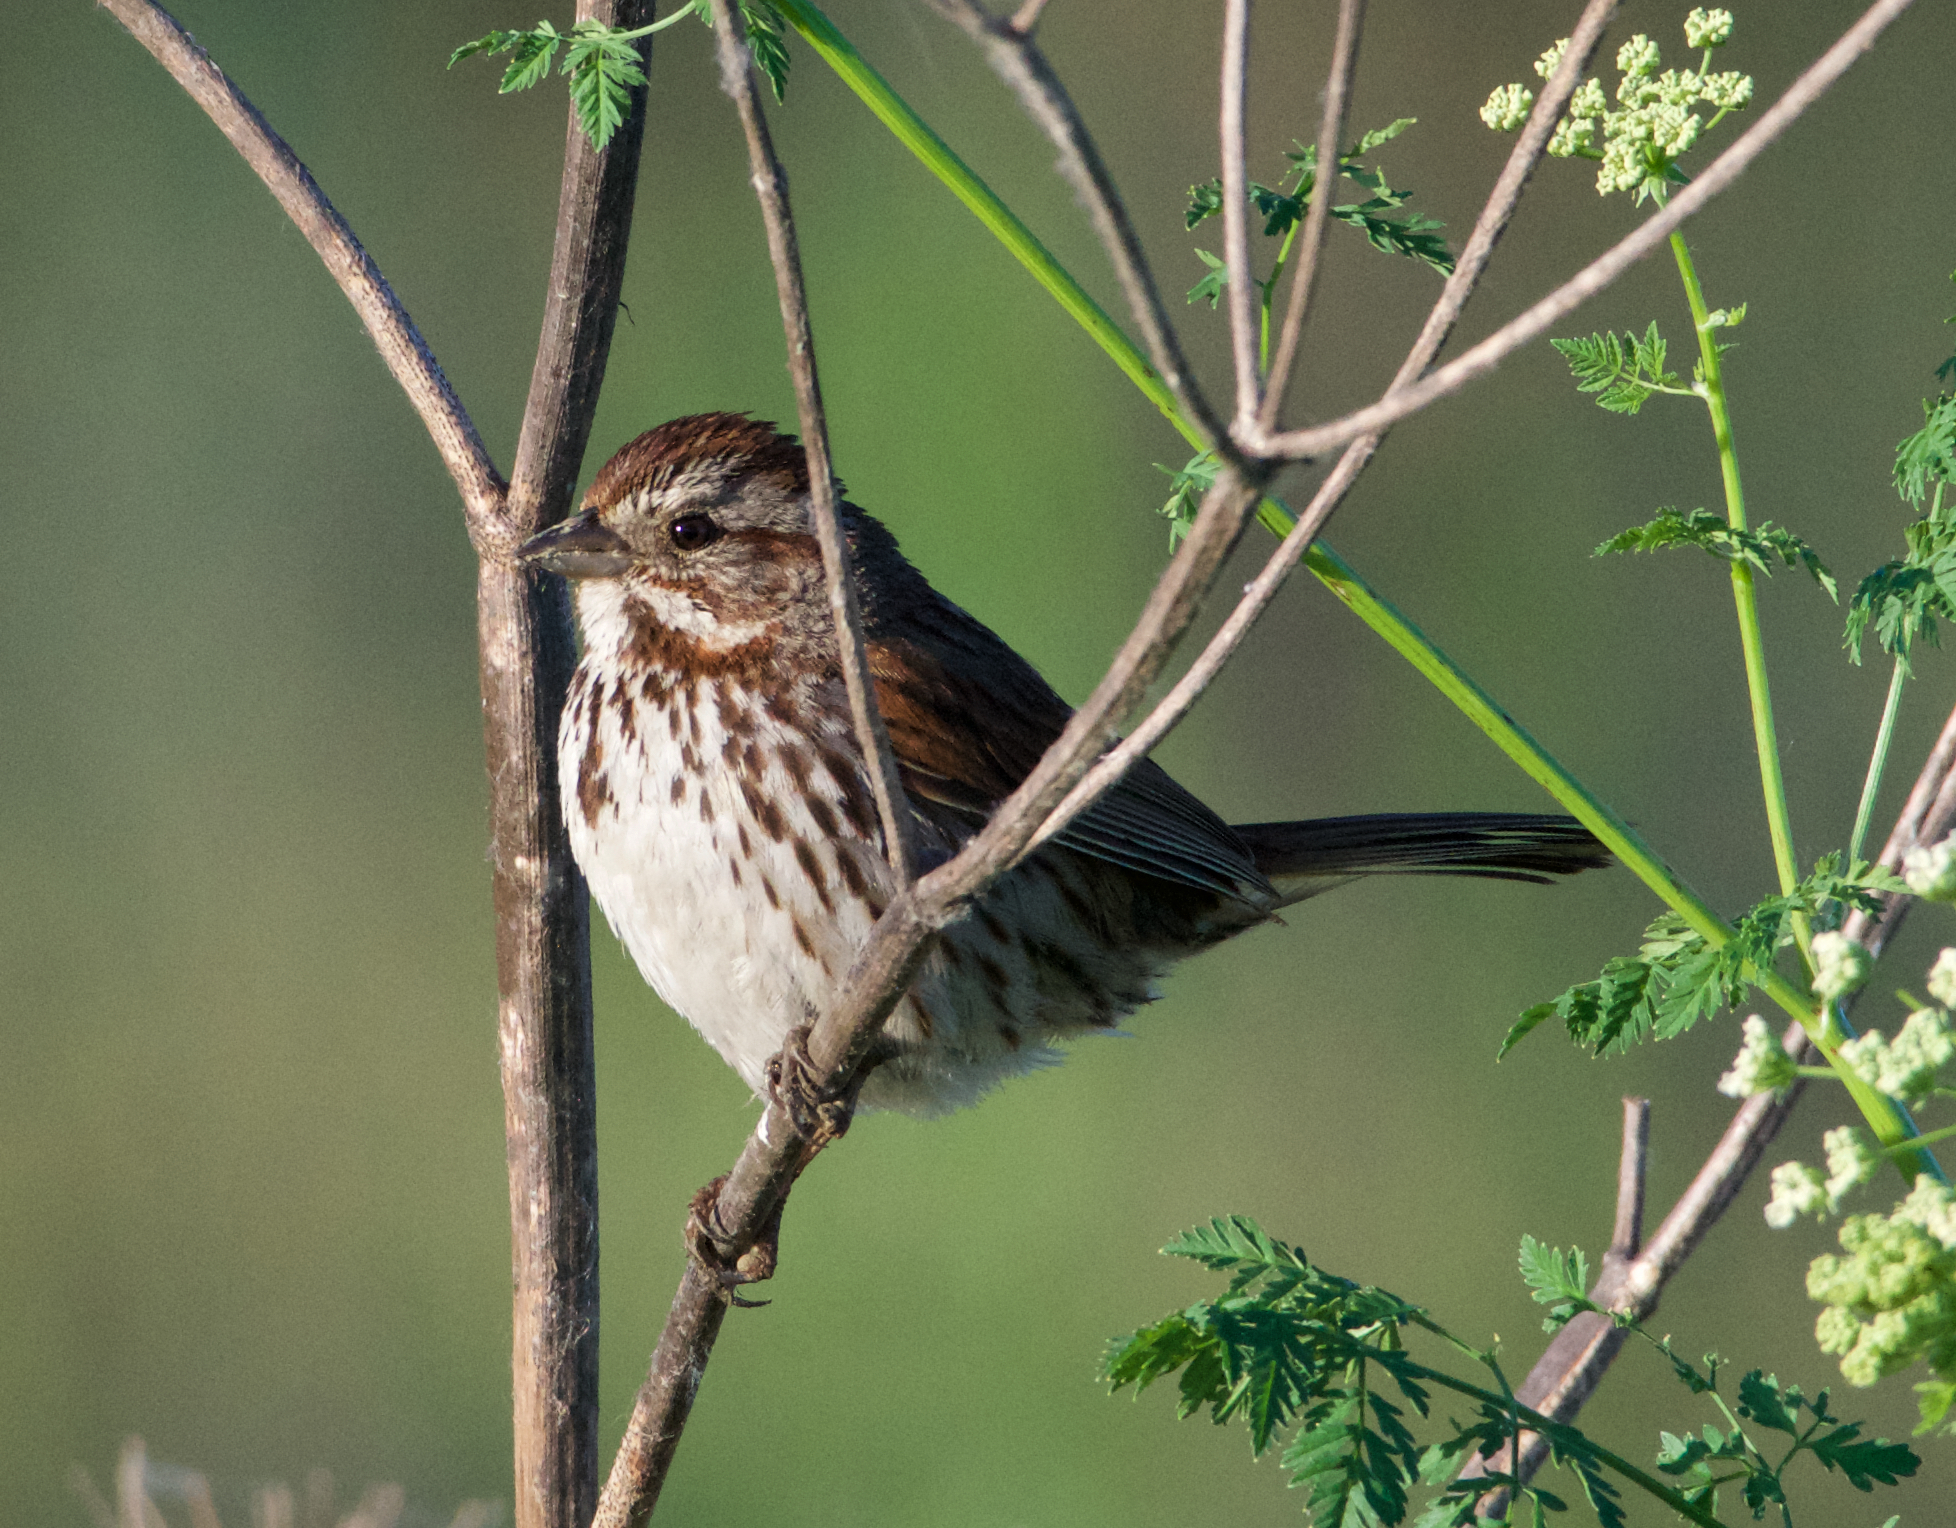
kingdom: Animalia
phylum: Chordata
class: Aves
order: Passeriformes
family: Passerellidae
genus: Melospiza
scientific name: Melospiza melodia
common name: Song sparrow
